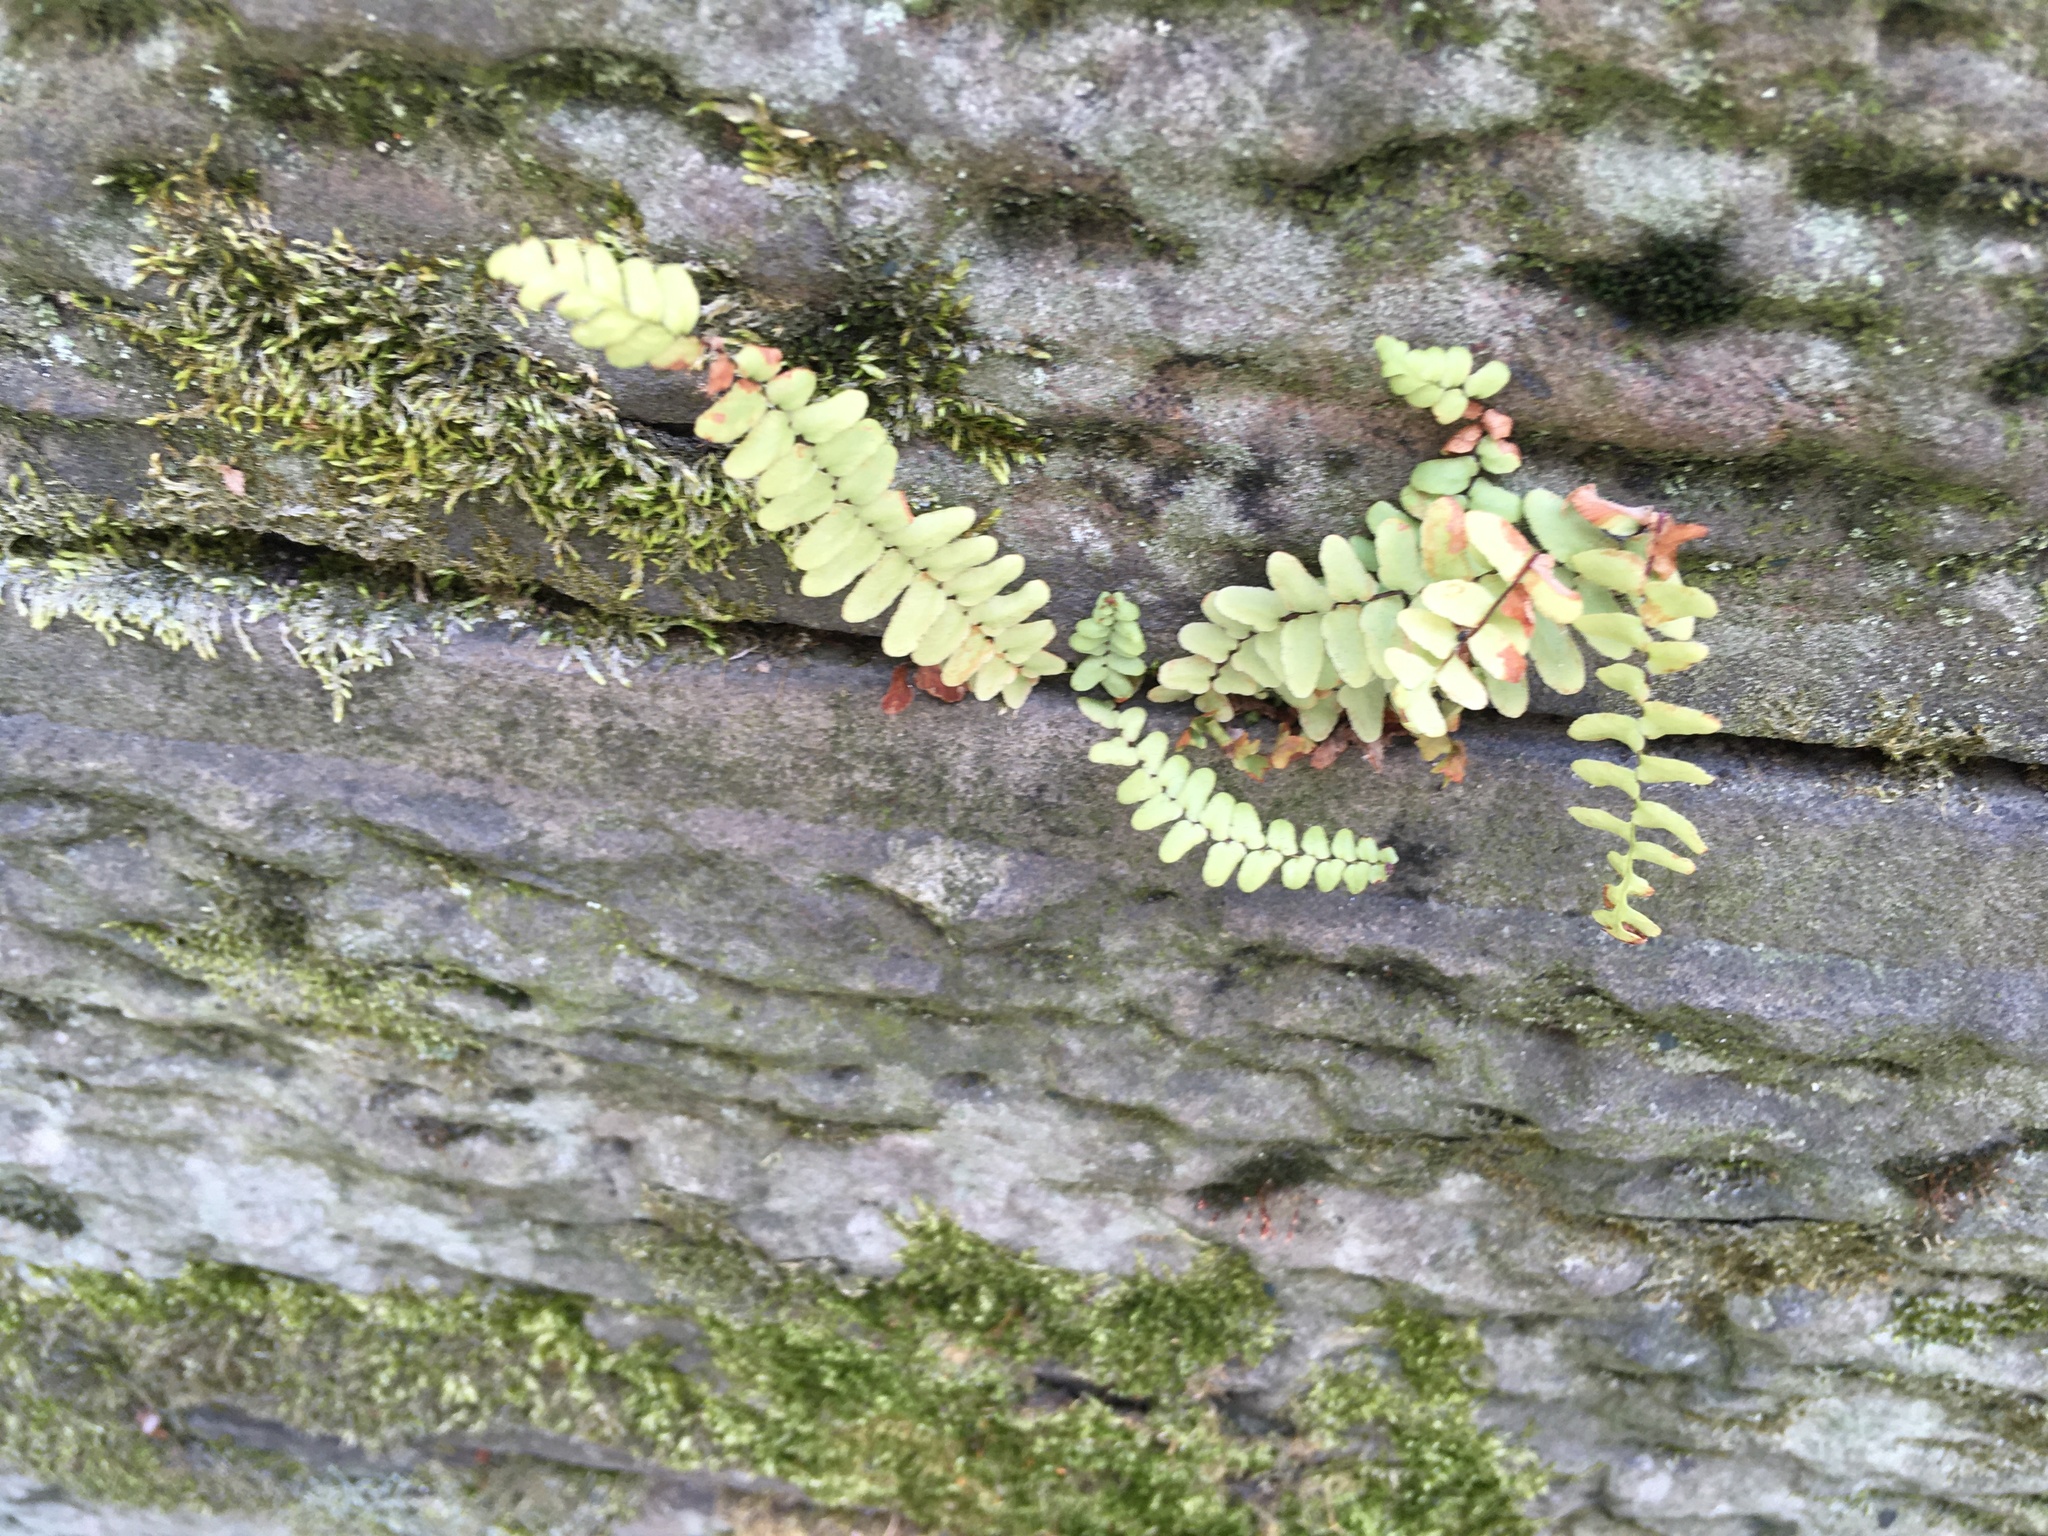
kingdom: Plantae
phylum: Tracheophyta
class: Polypodiopsida
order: Polypodiales
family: Aspleniaceae
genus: Asplenium
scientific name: Asplenium platyneuron
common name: Ebony spleenwort
